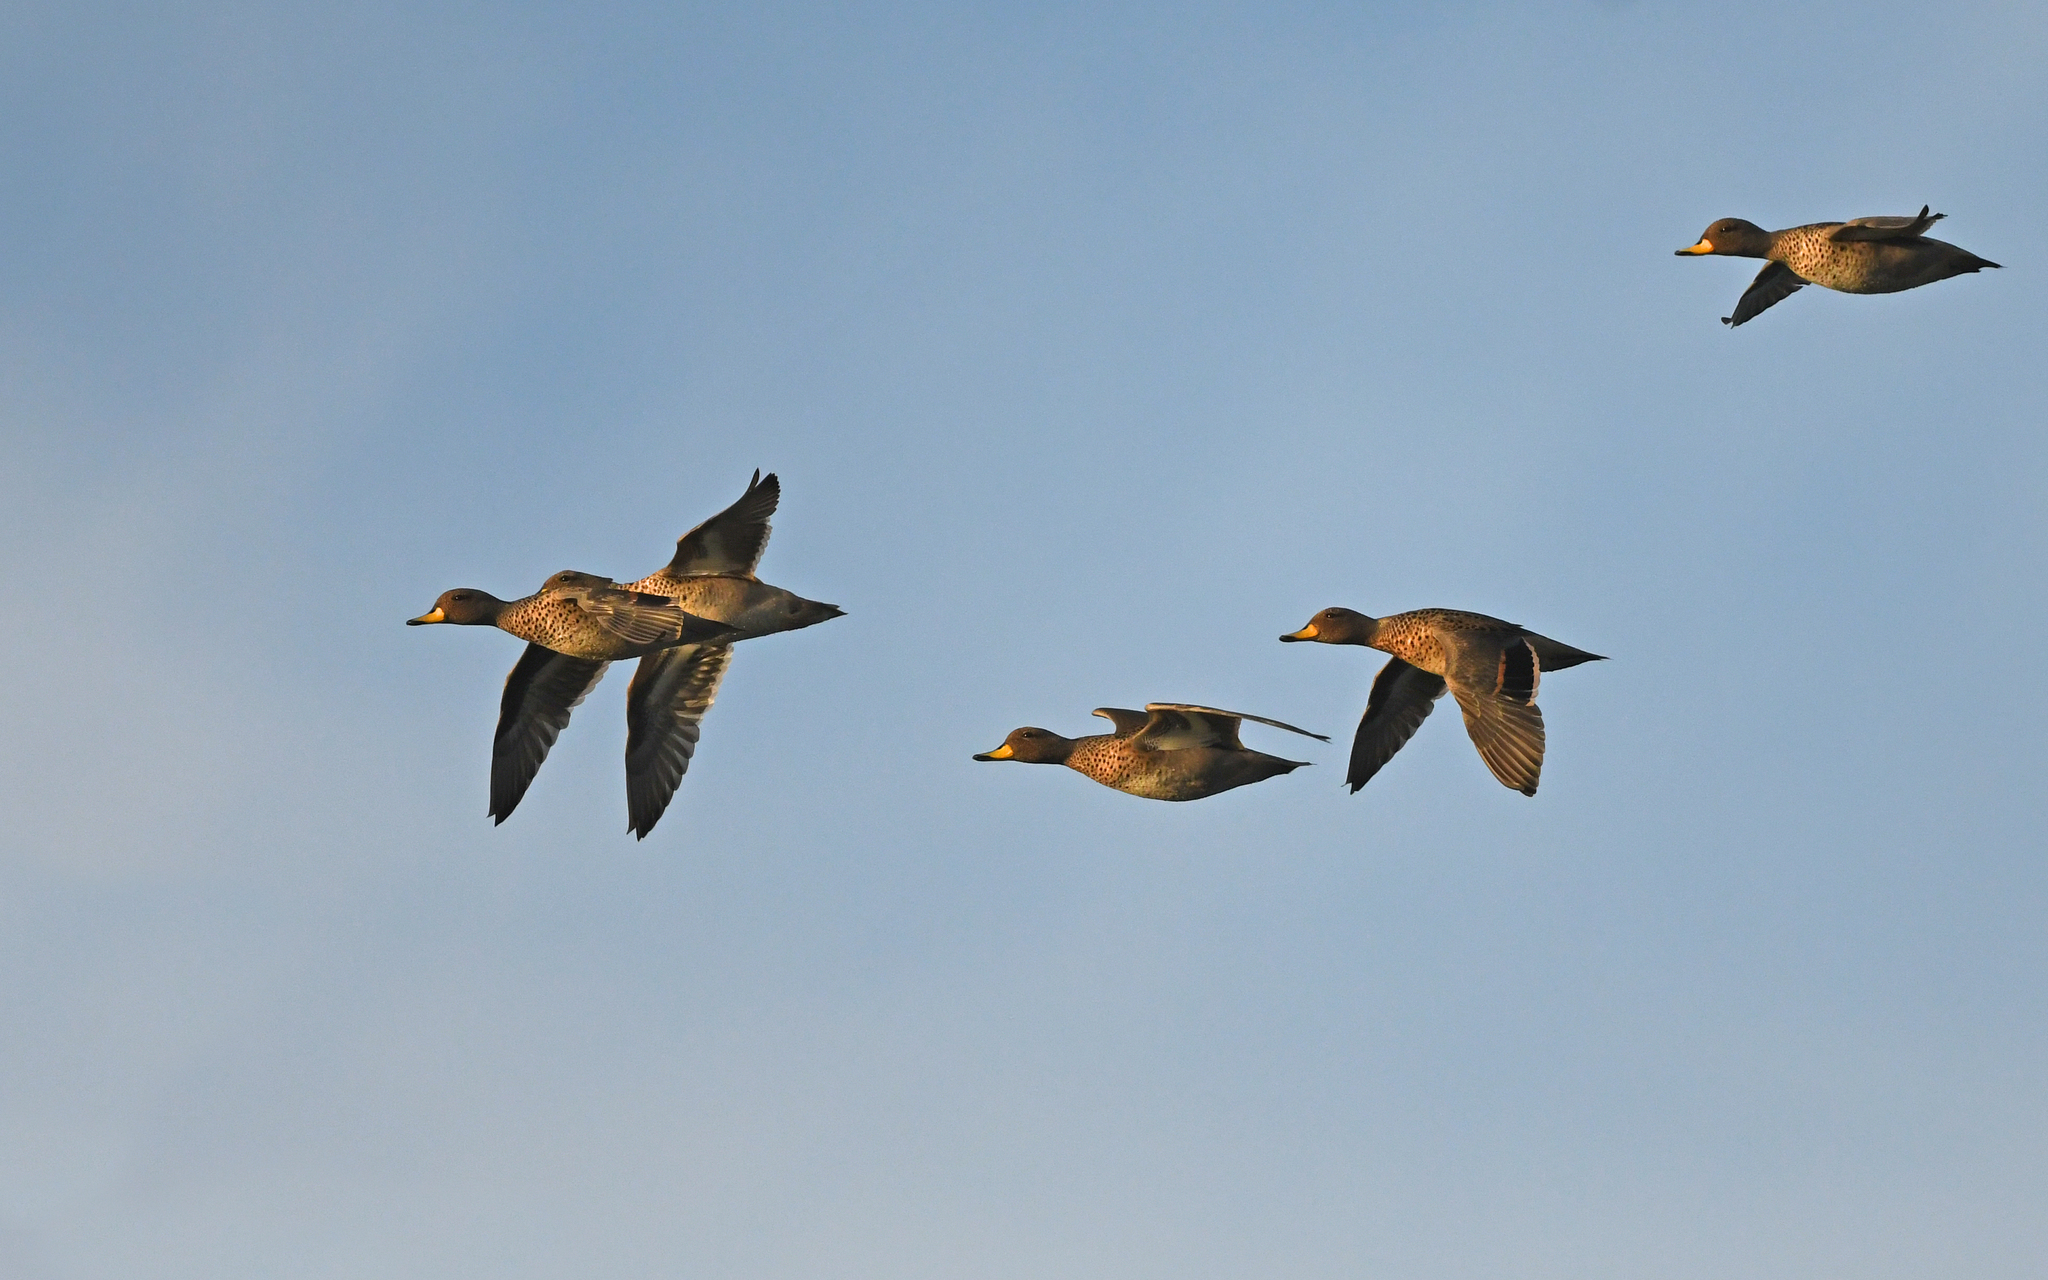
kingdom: Animalia
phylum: Chordata
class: Aves
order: Anseriformes
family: Anatidae
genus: Anas
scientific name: Anas flavirostris
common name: Yellow-billed teal
